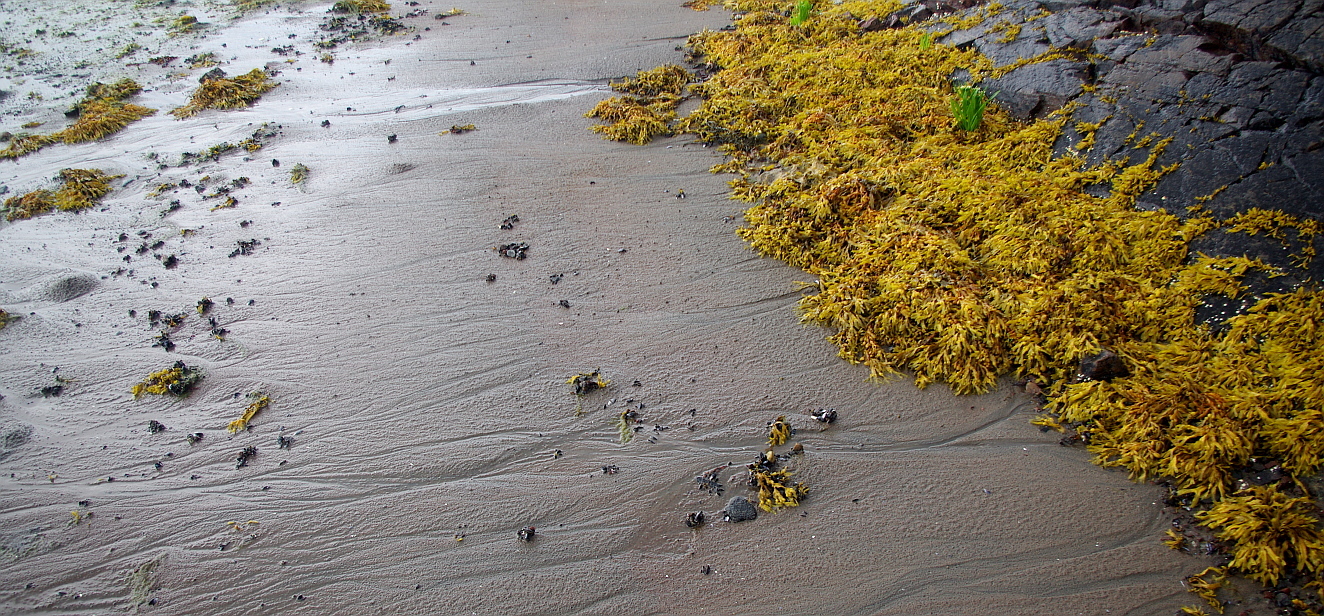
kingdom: Chromista
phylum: Ochrophyta
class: Phaeophyceae
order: Fucales
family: Fucaceae
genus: Fucus
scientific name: Fucus vesiculosus
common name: Bladder wrack
